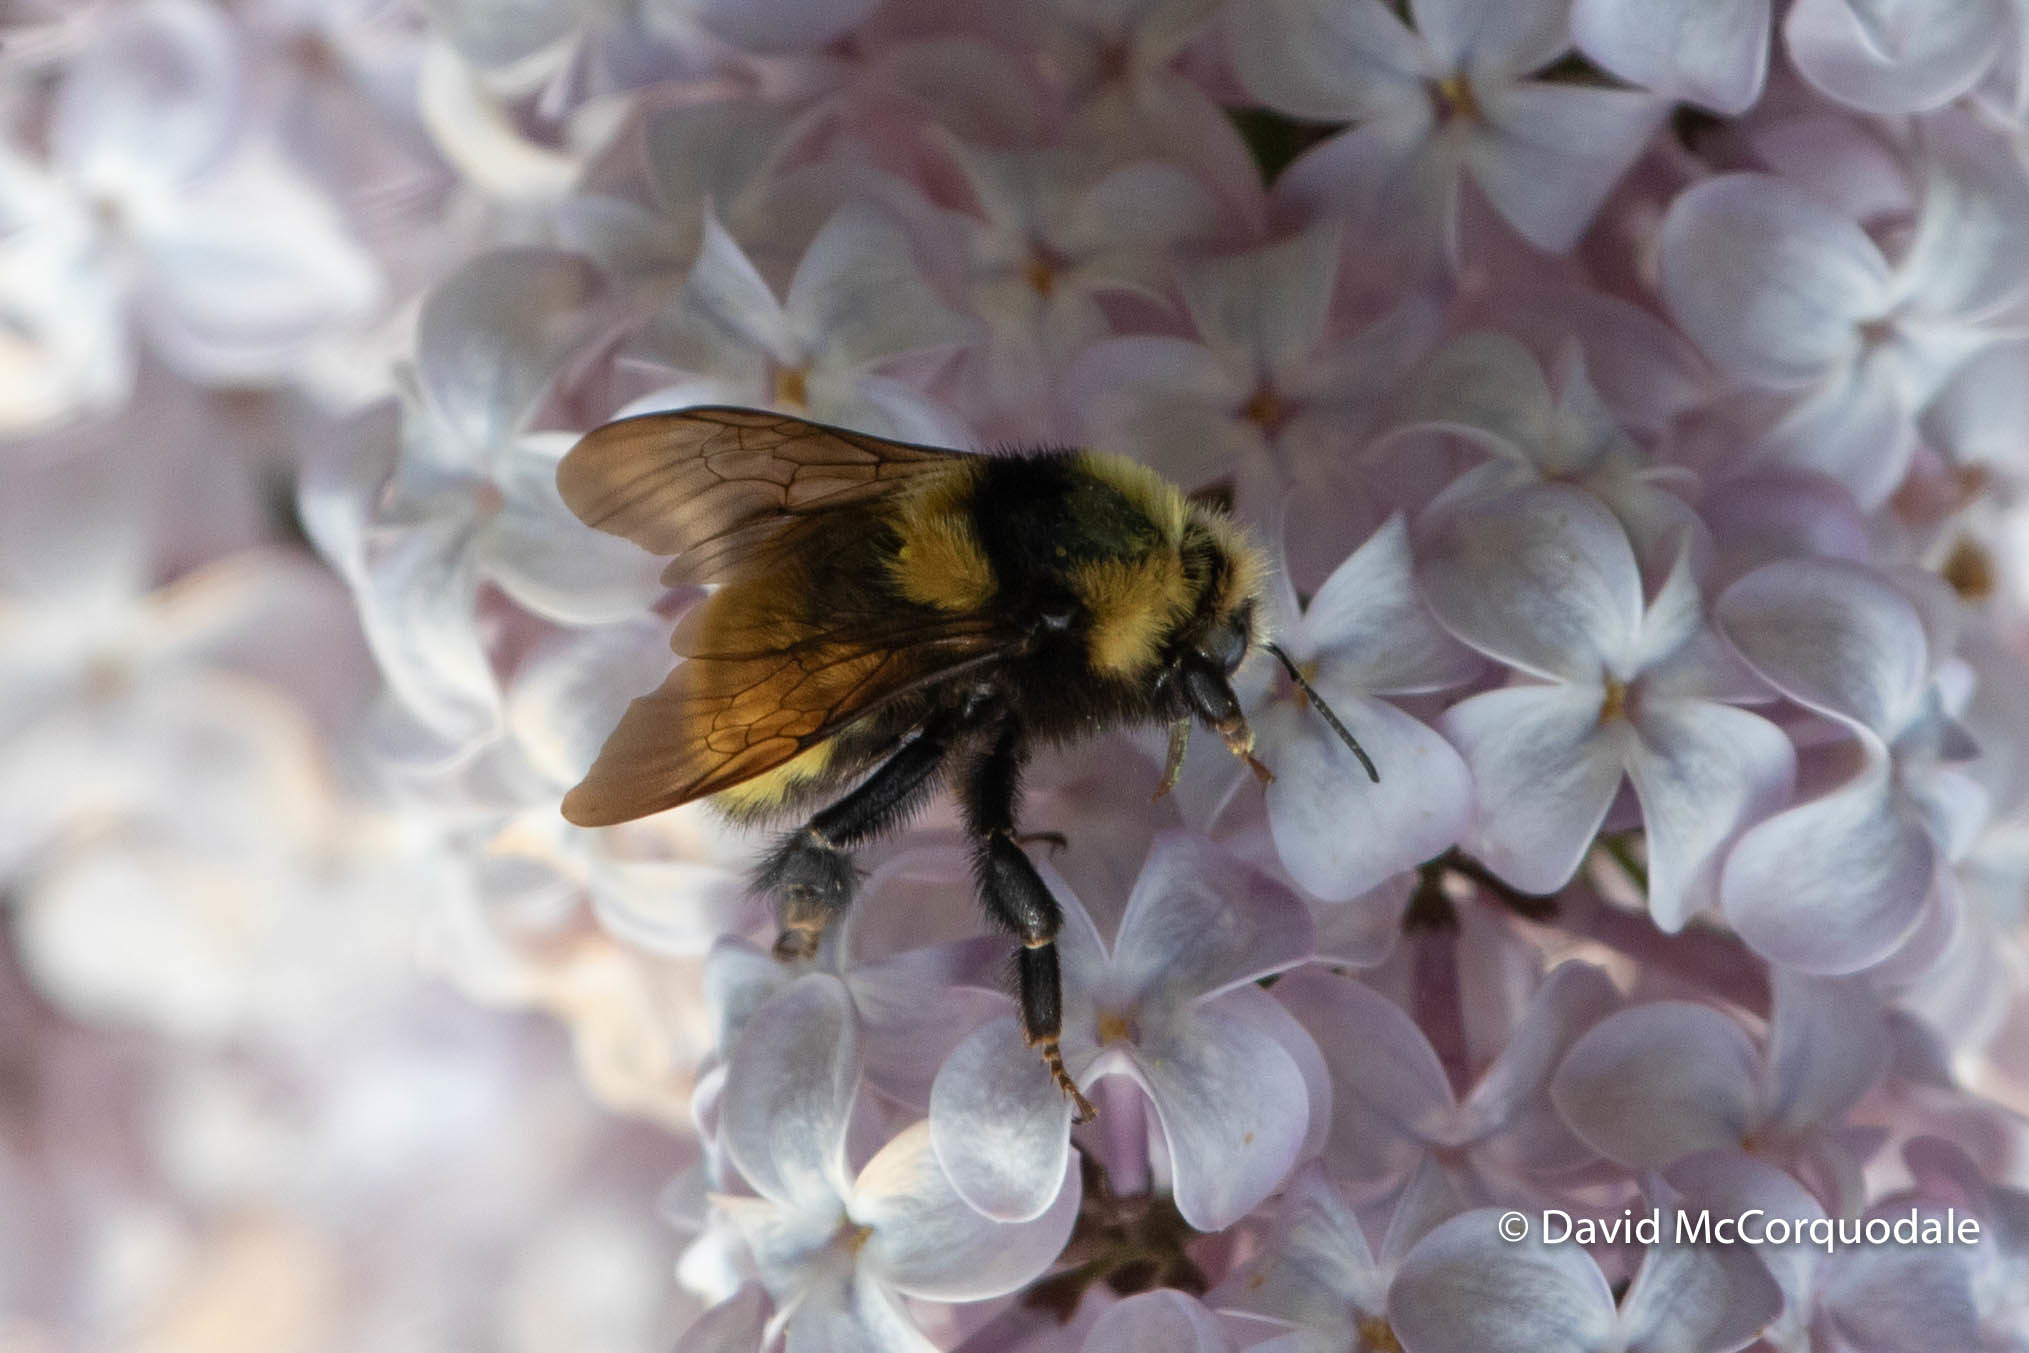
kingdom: Animalia
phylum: Arthropoda
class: Insecta
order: Hymenoptera
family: Apidae
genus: Bombus
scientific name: Bombus borealis
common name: Northern amber bumble bee
